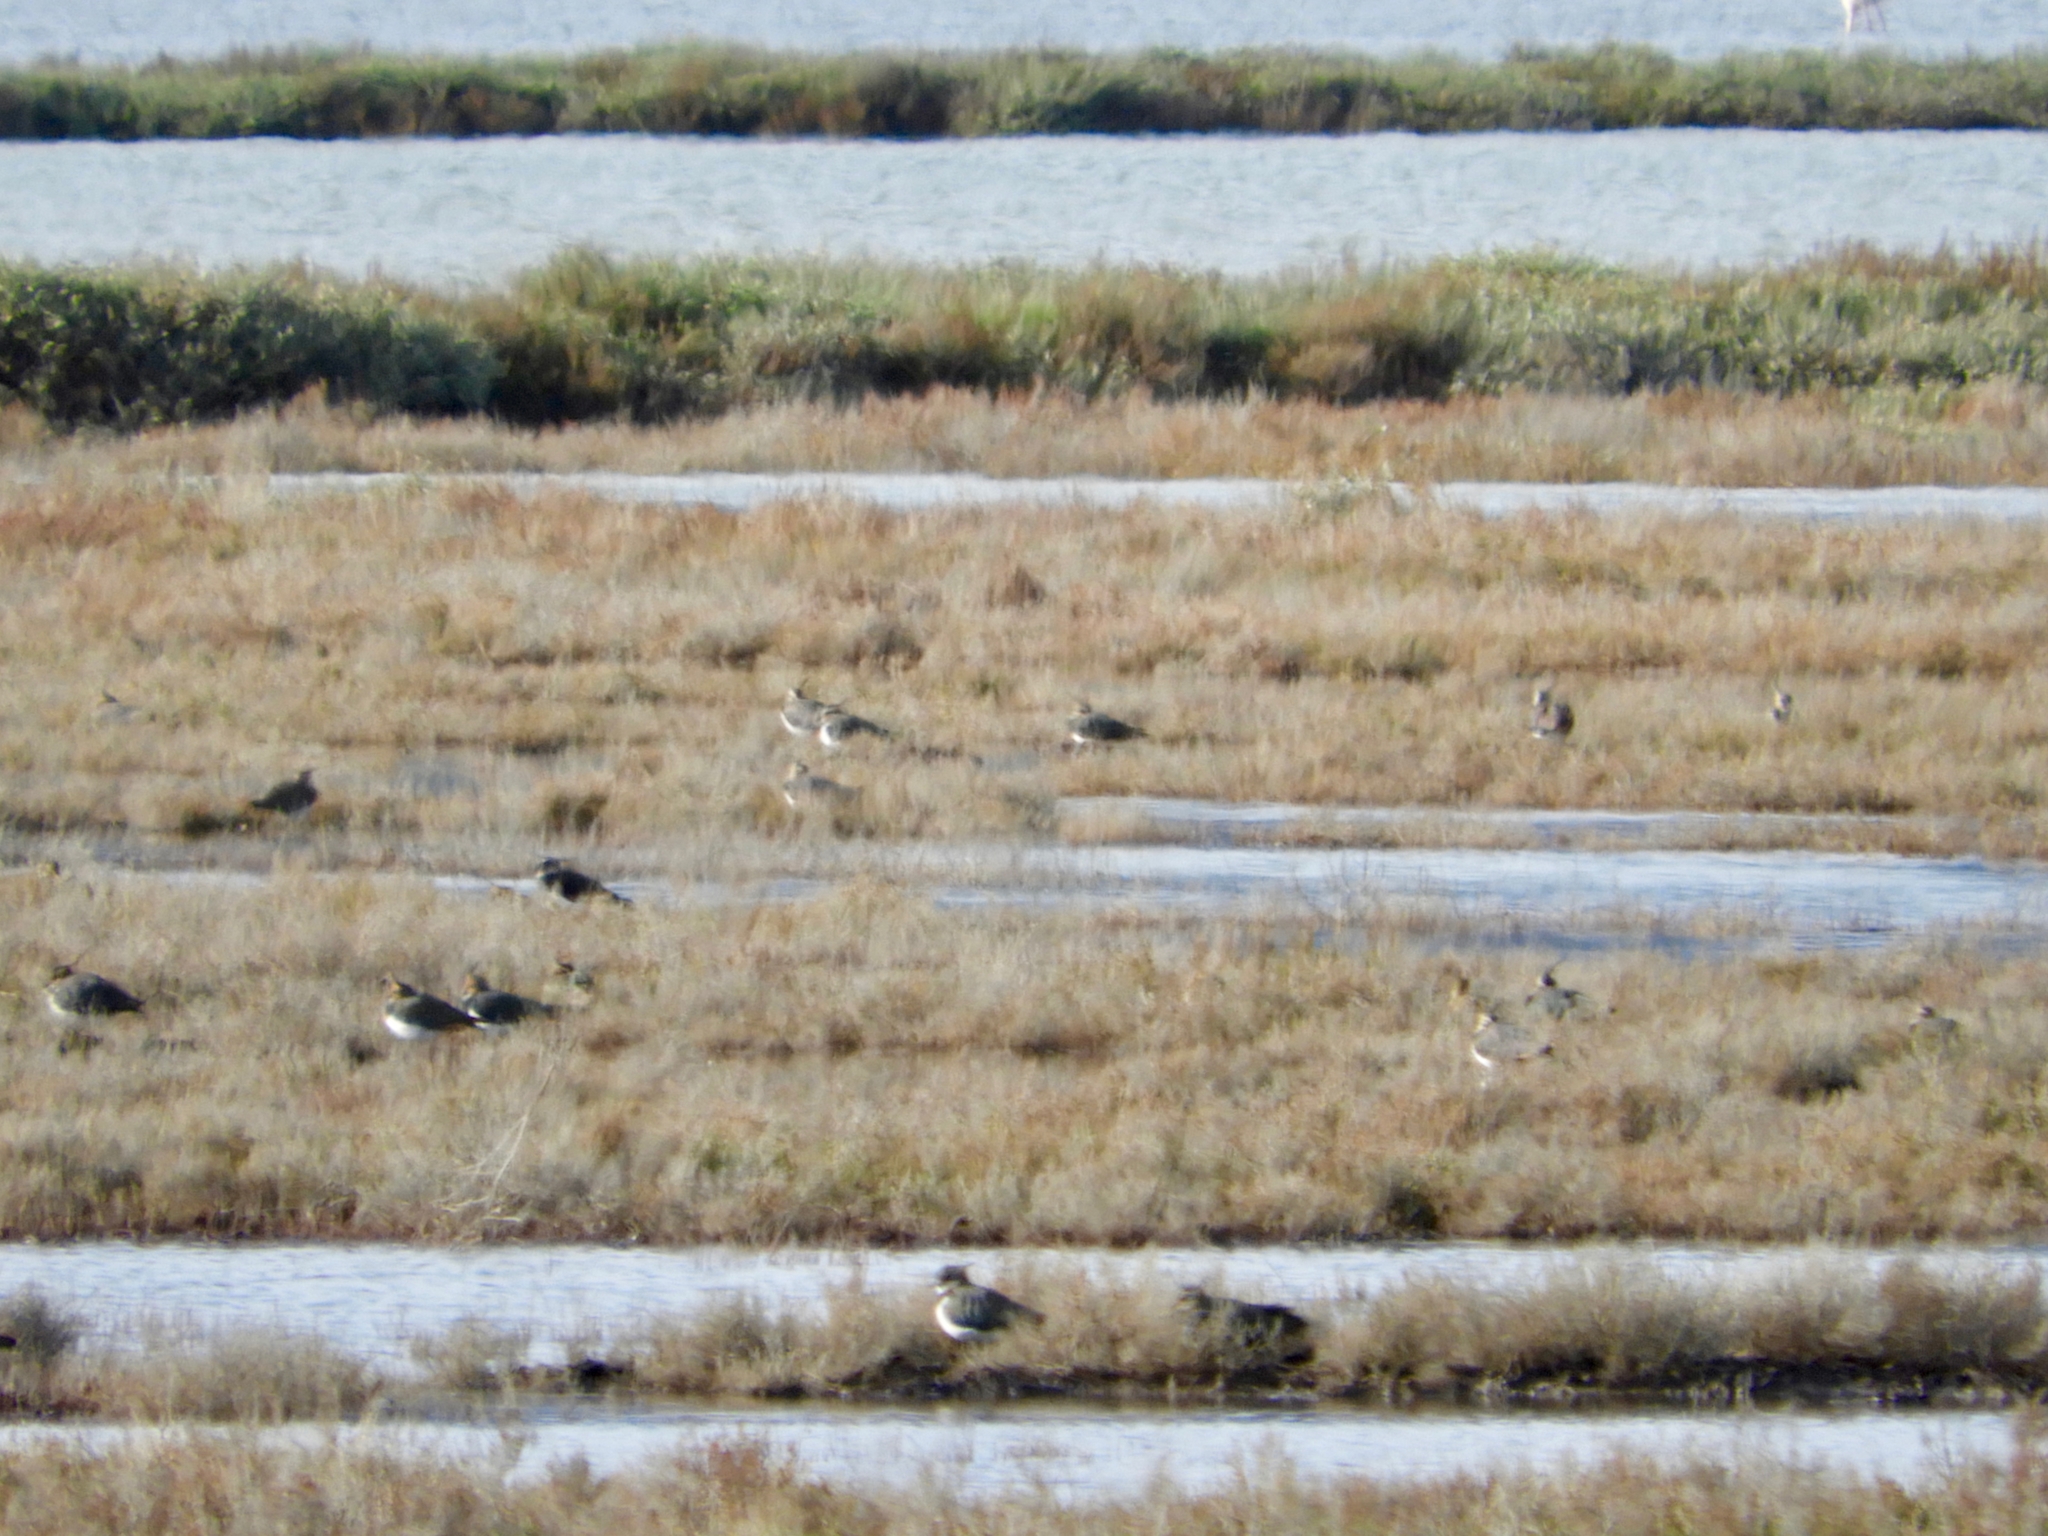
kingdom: Animalia
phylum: Chordata
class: Aves
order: Charadriiformes
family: Charadriidae
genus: Vanellus
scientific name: Vanellus vanellus
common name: Northern lapwing
